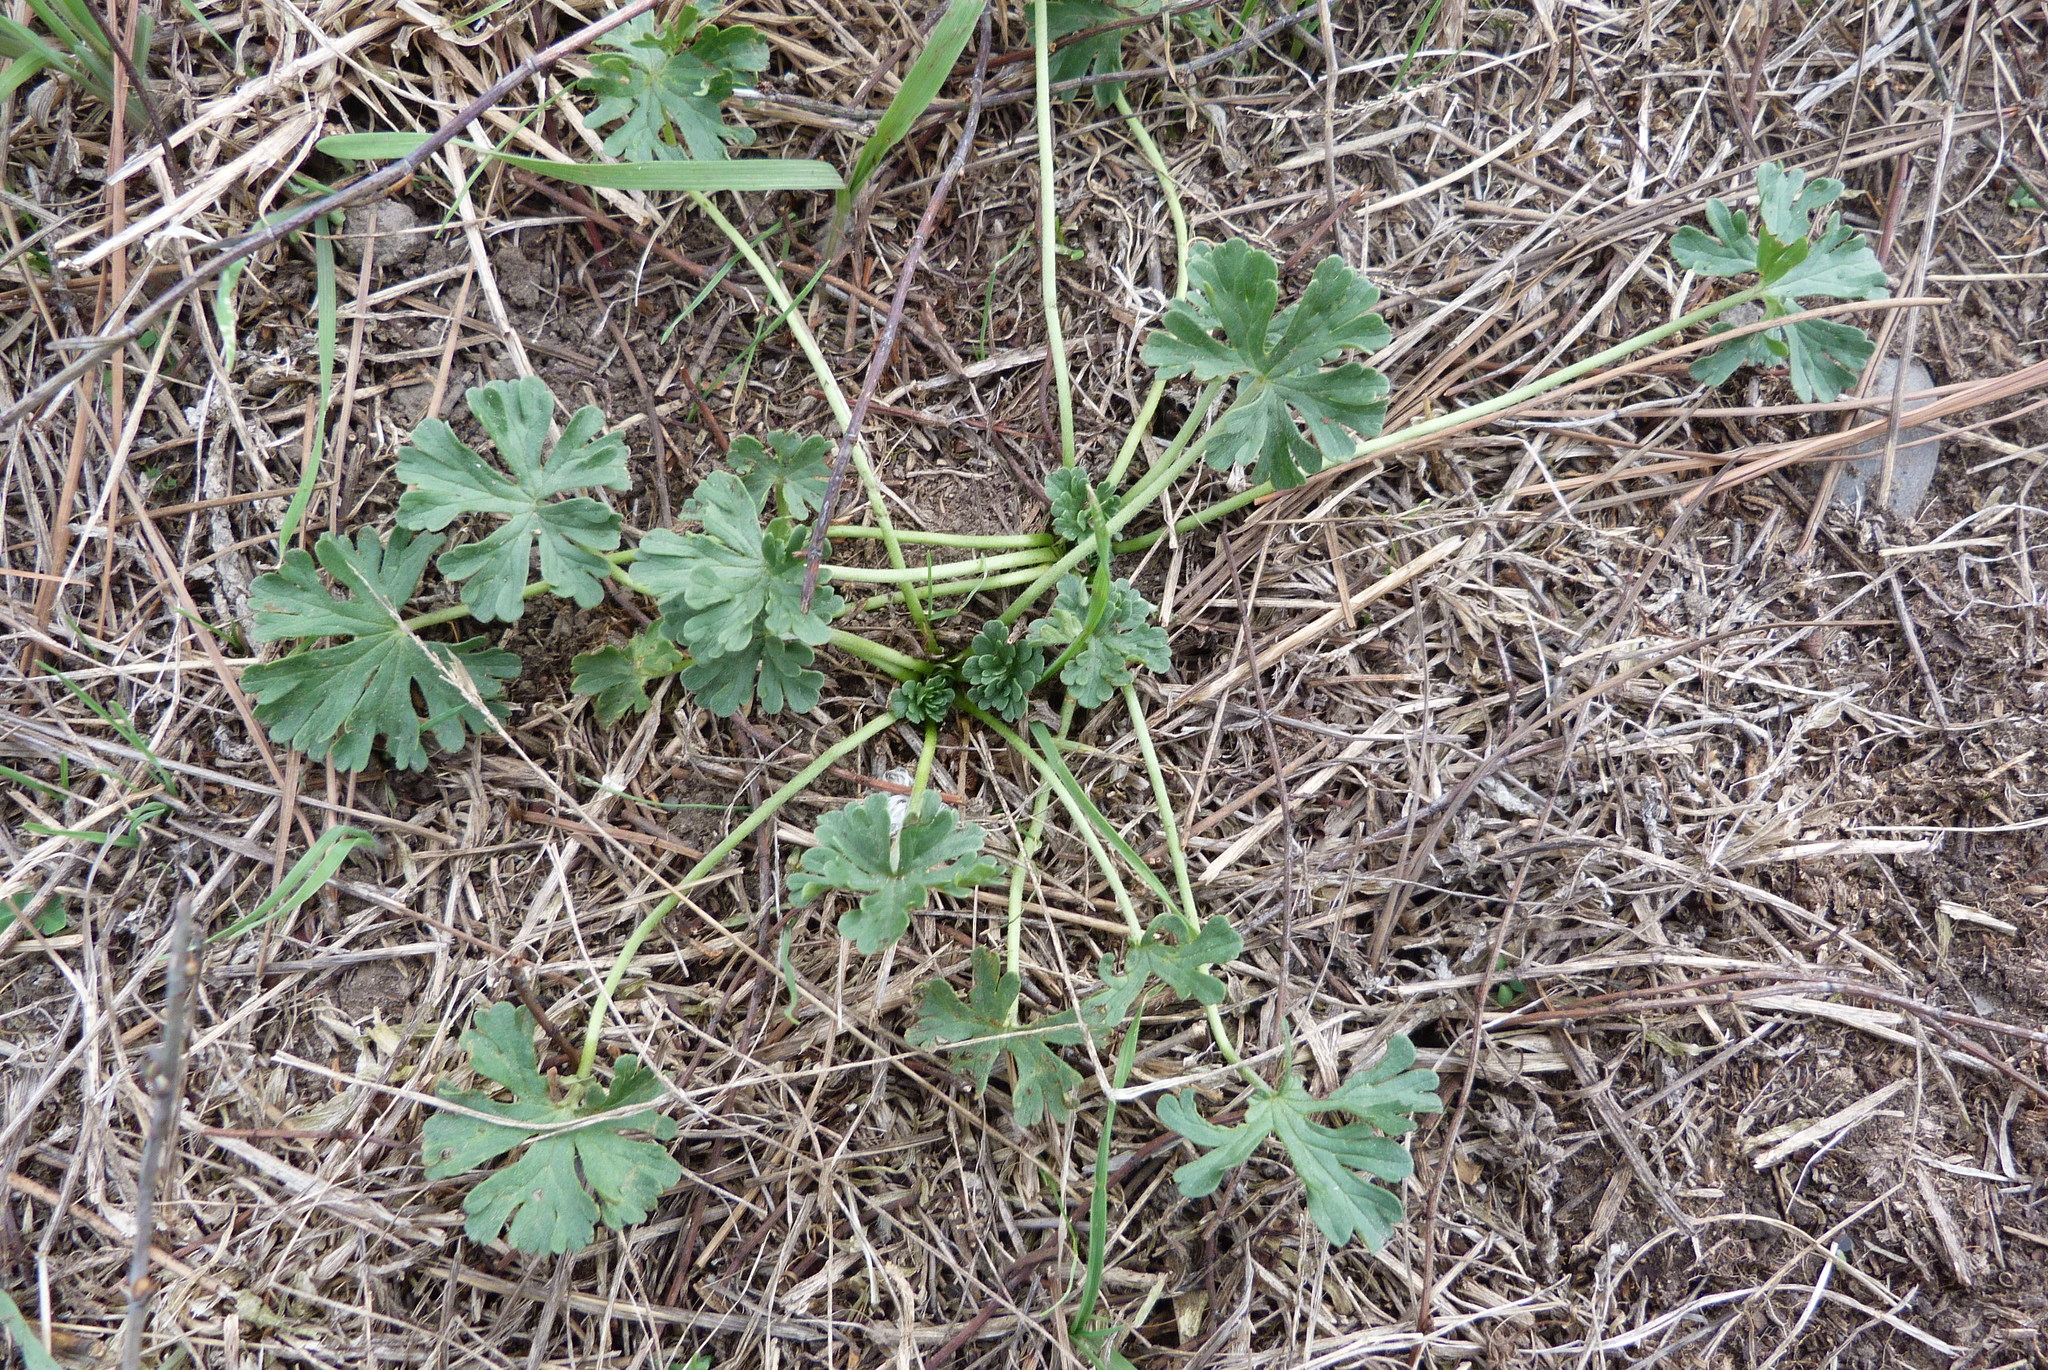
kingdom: Plantae
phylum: Tracheophyta
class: Magnoliopsida
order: Geraniales
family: Geraniaceae
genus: Geranium
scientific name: Geranium retrorsum
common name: New zealand geranium
